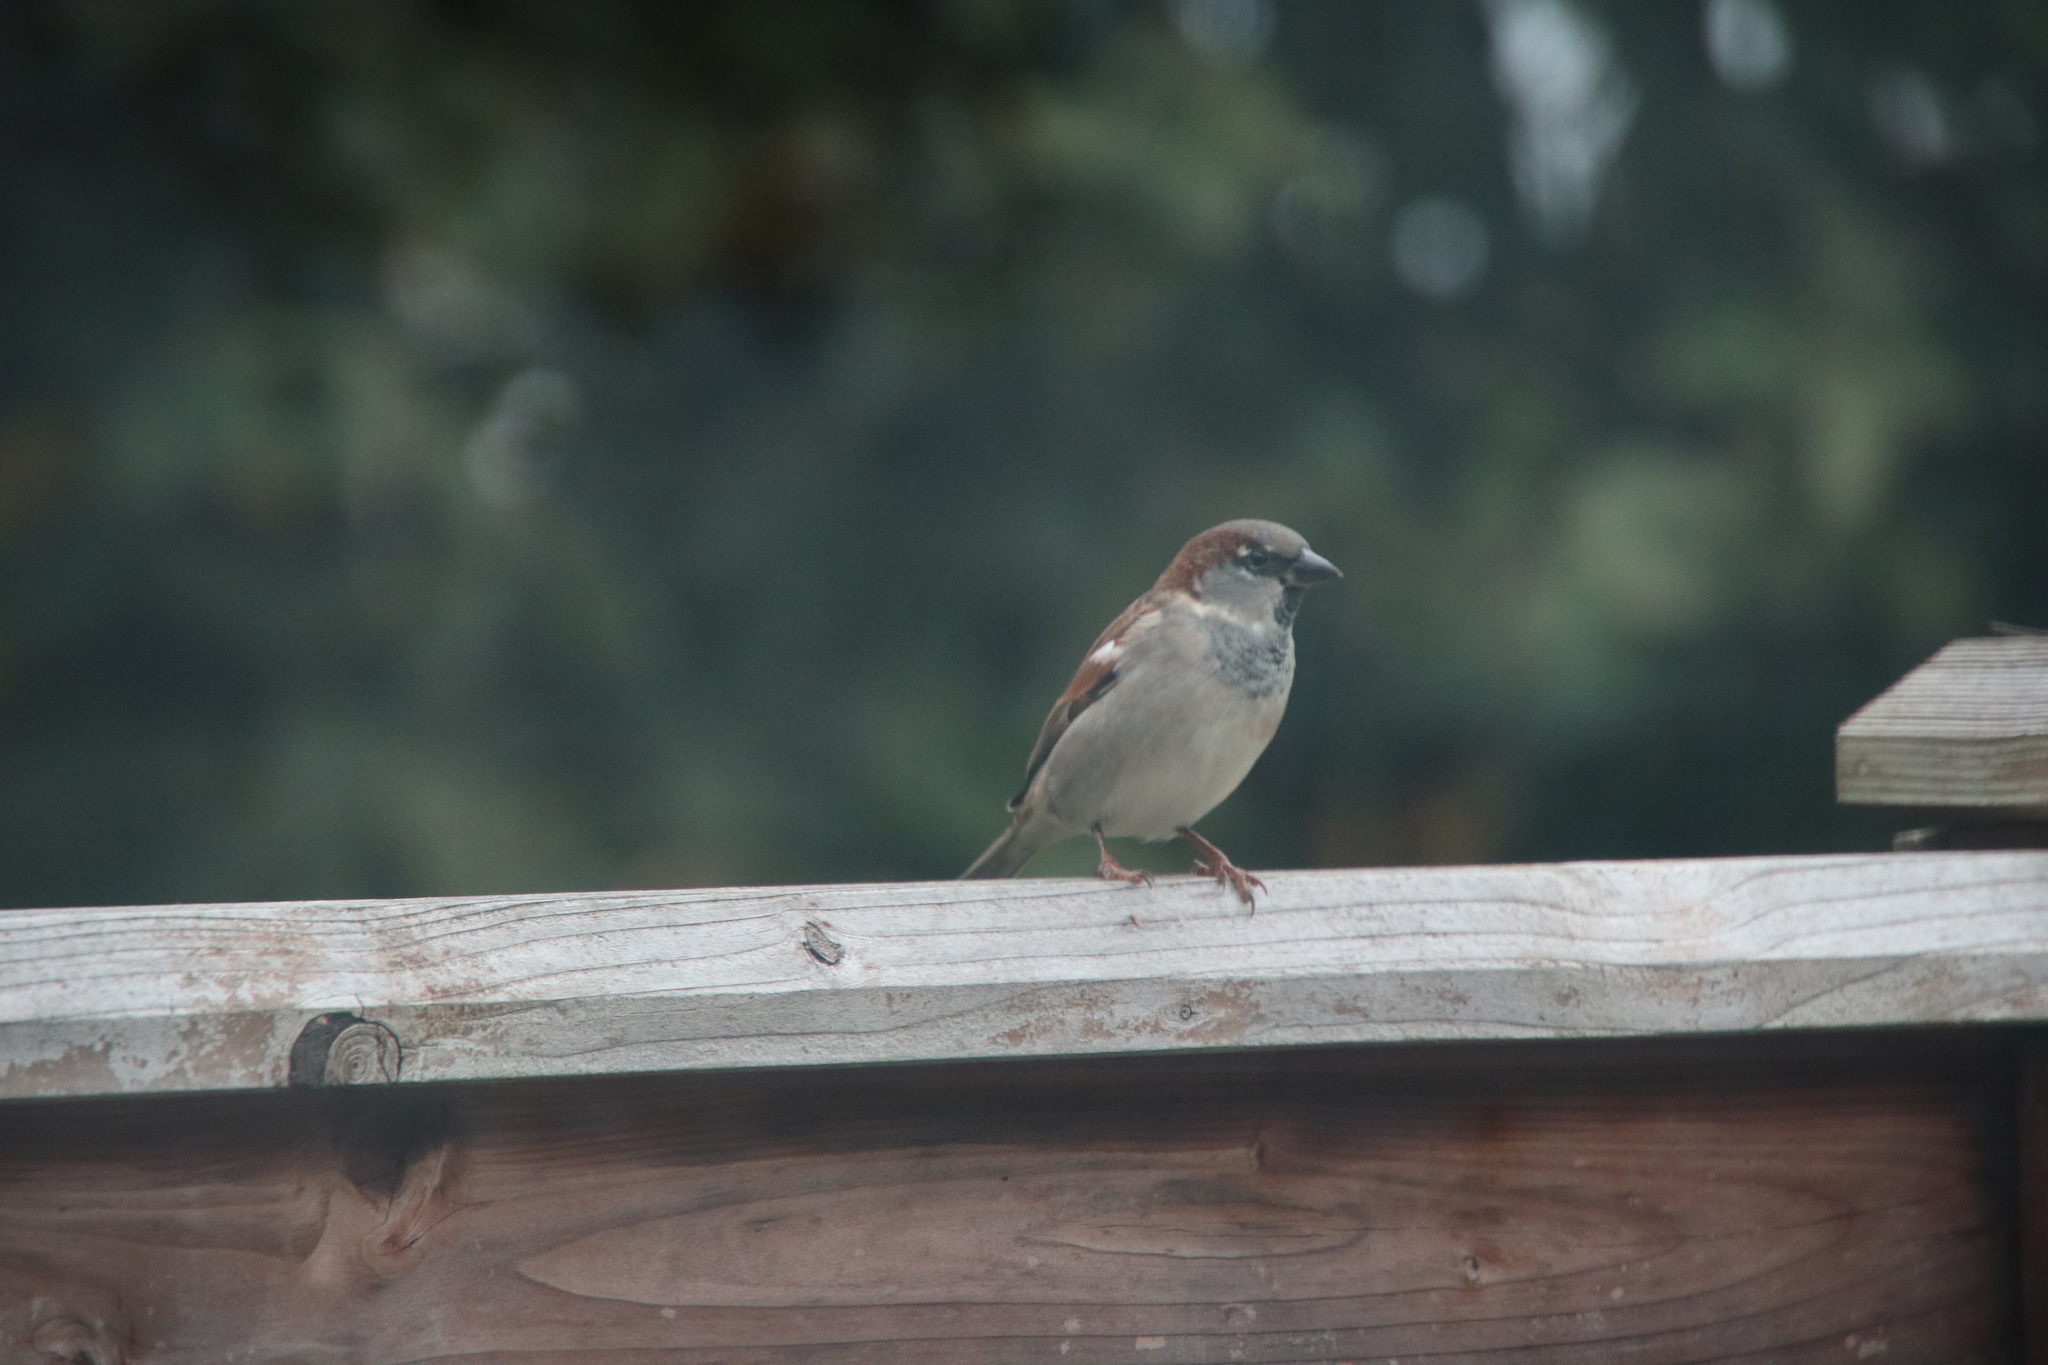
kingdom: Animalia
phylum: Chordata
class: Aves
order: Passeriformes
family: Passeridae
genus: Passer
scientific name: Passer domesticus
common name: House sparrow
